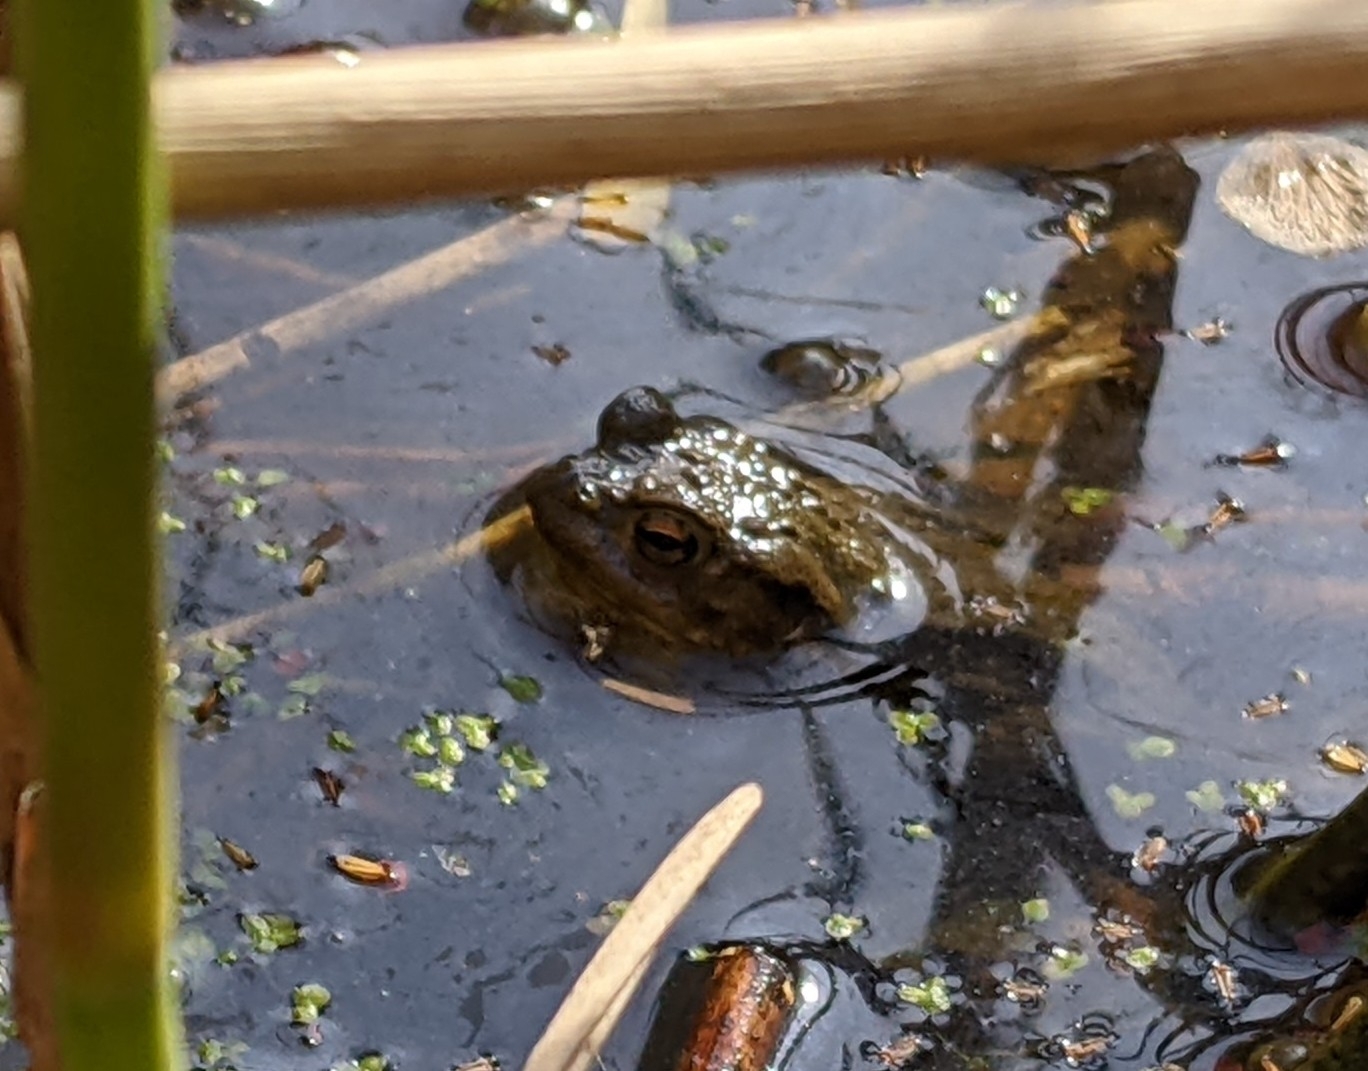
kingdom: Animalia
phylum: Chordata
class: Amphibia
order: Anura
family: Bufonidae
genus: Bufo
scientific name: Bufo bufo
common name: Common toad
